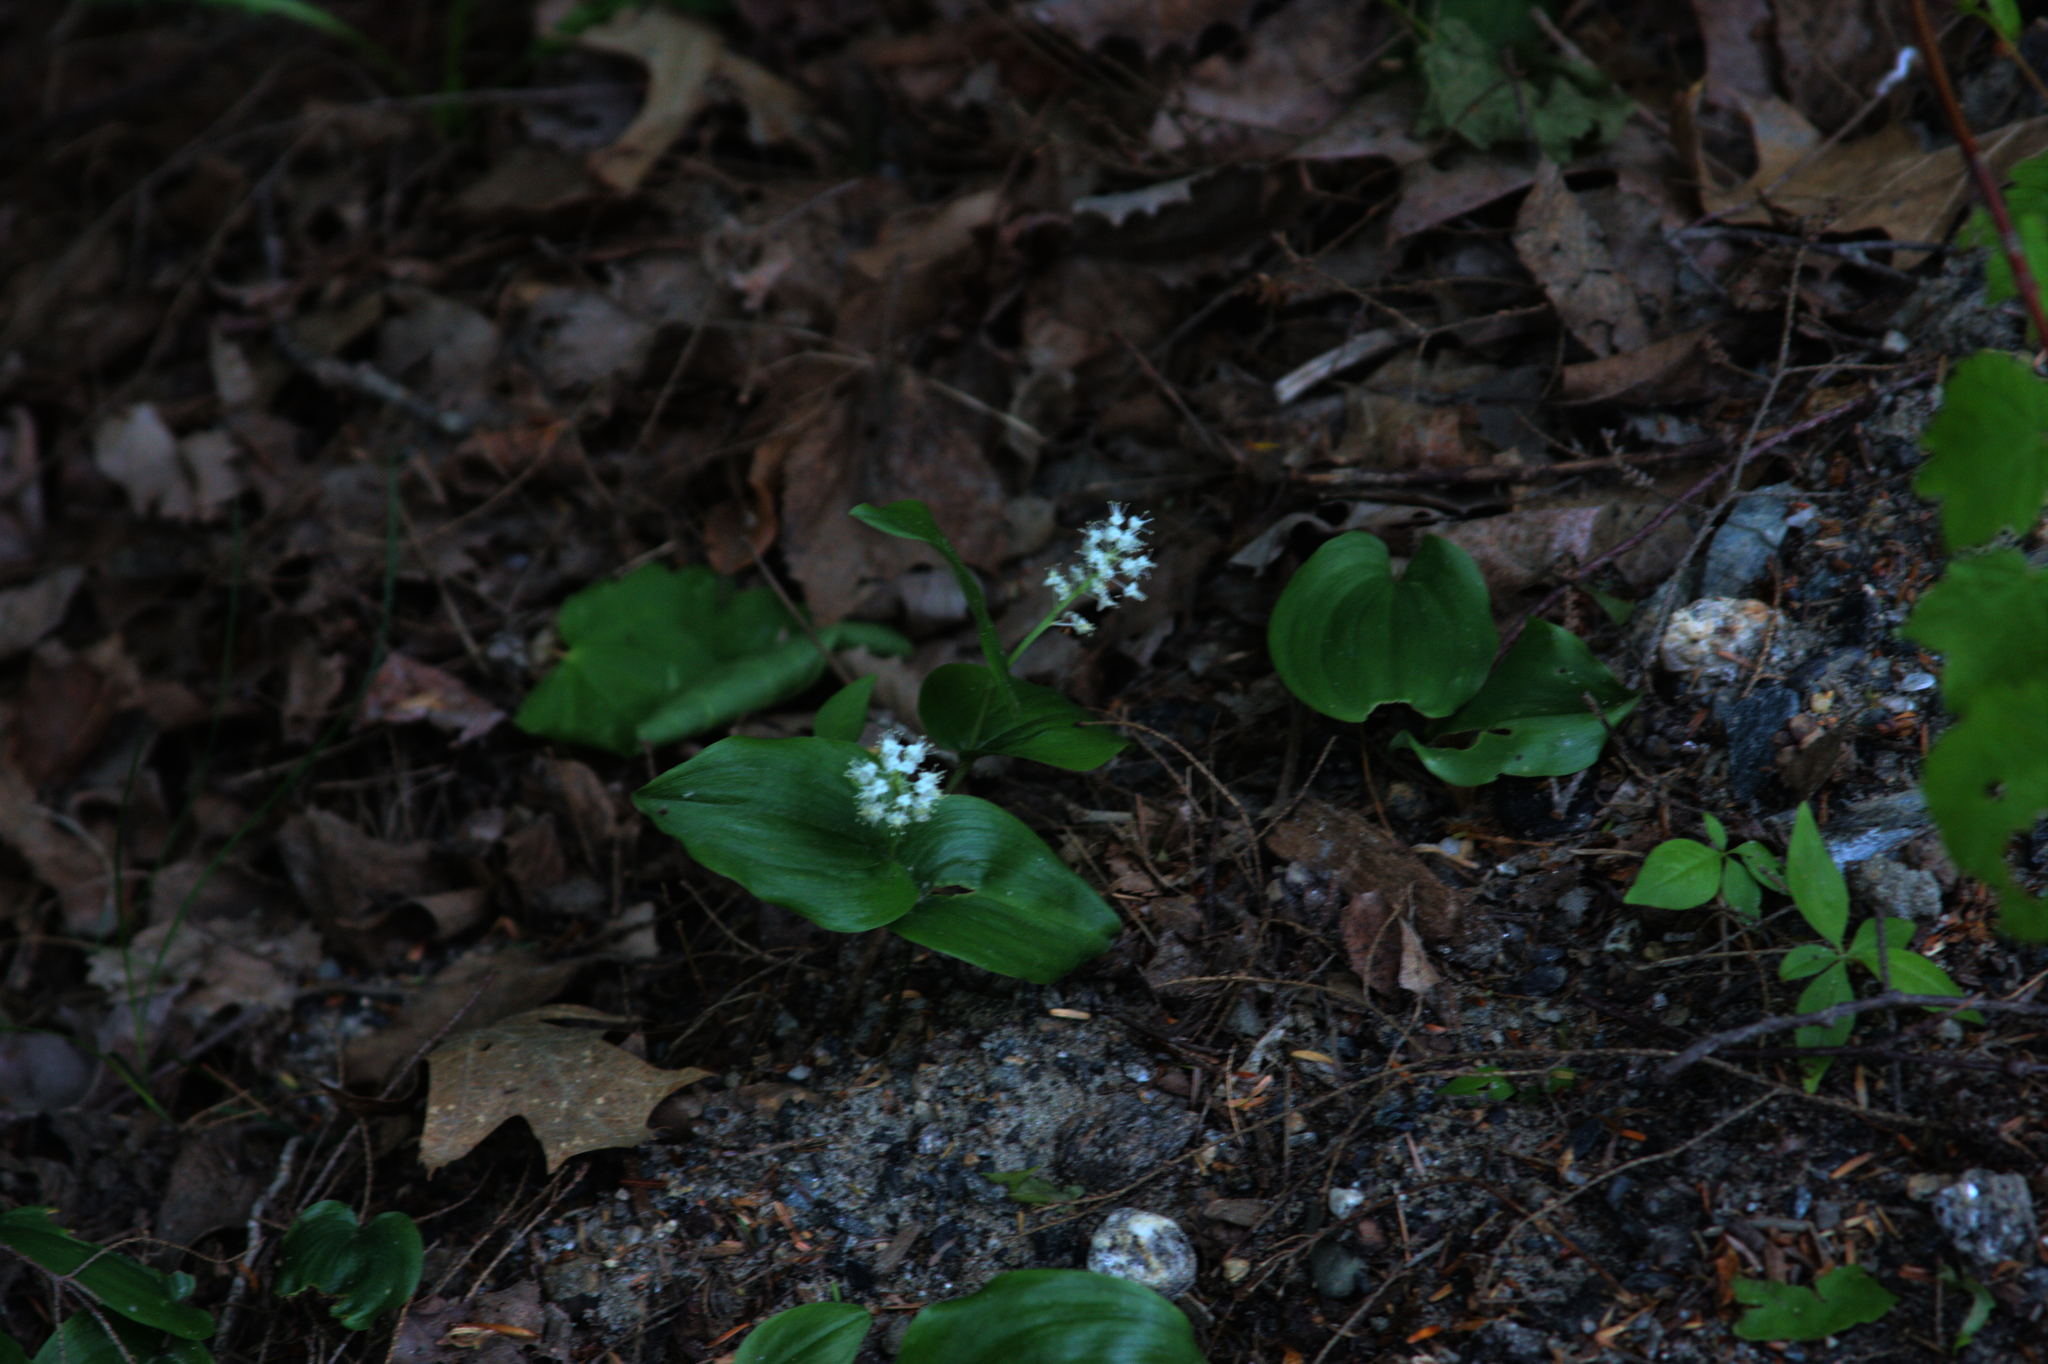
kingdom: Plantae
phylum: Tracheophyta
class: Liliopsida
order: Asparagales
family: Asparagaceae
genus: Maianthemum
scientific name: Maianthemum canadense
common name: False lily-of-the-valley
